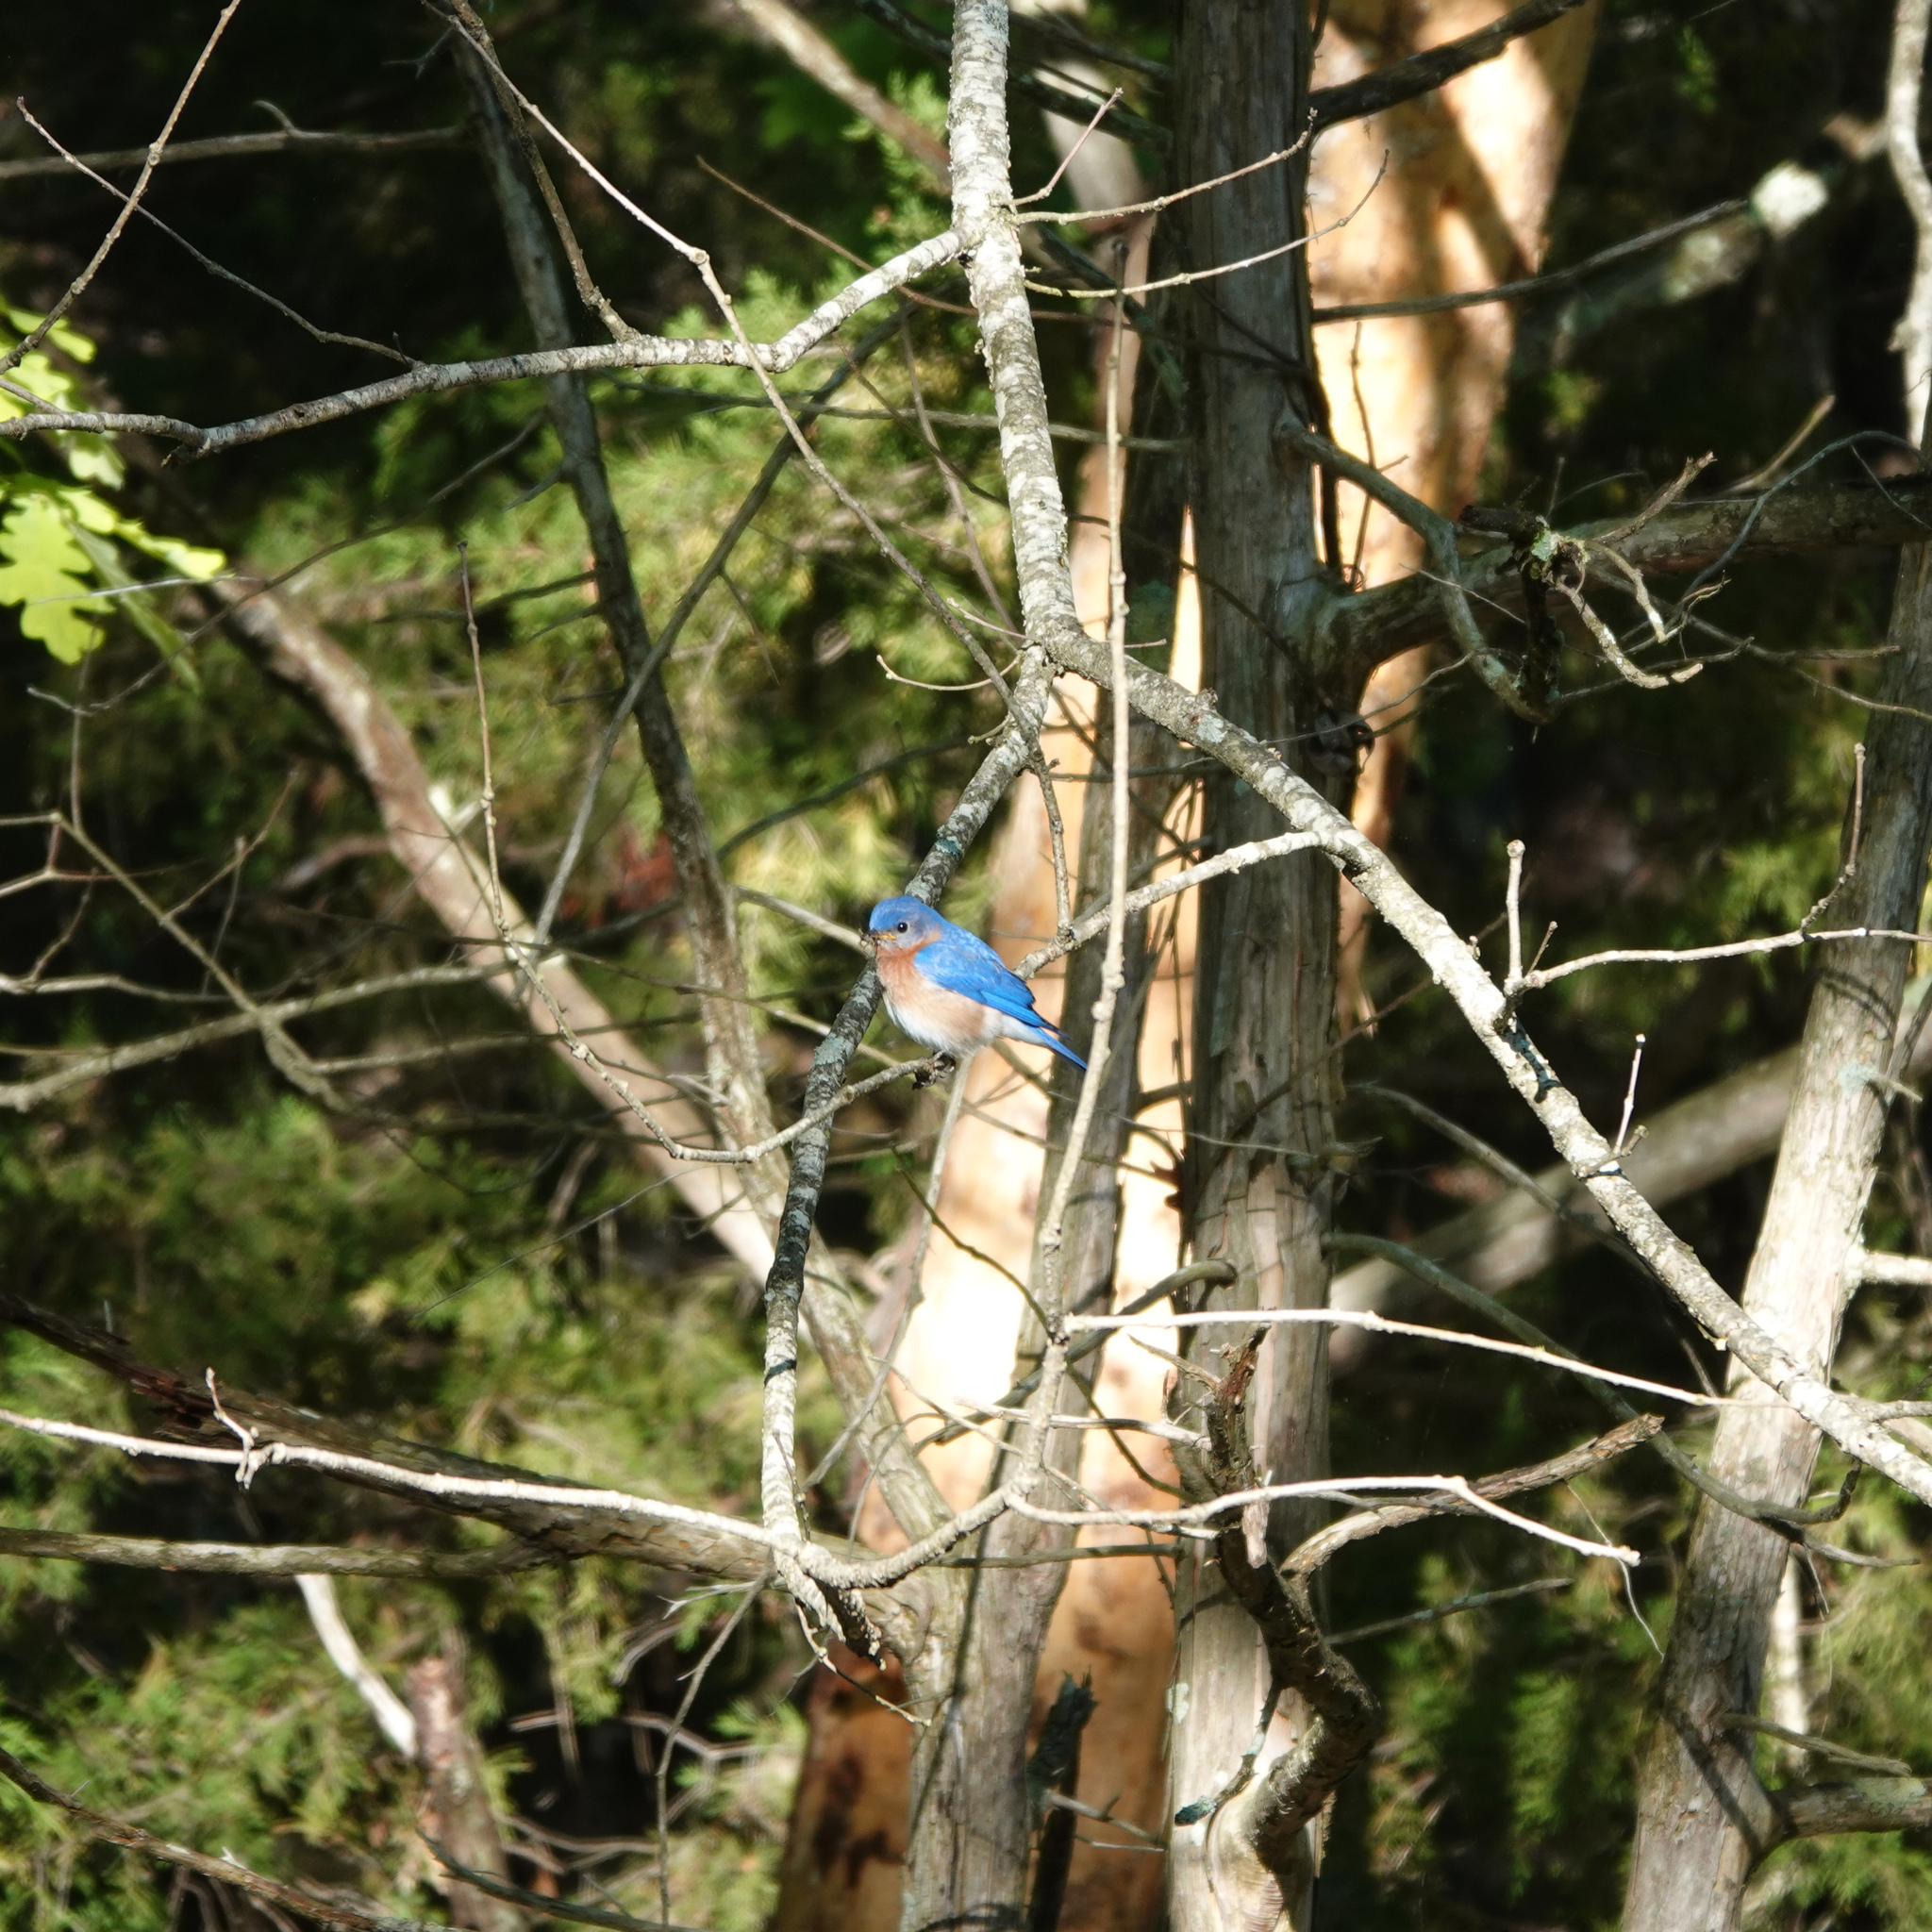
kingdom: Animalia
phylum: Chordata
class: Aves
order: Passeriformes
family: Turdidae
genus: Sialia
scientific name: Sialia sialis
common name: Eastern bluebird
